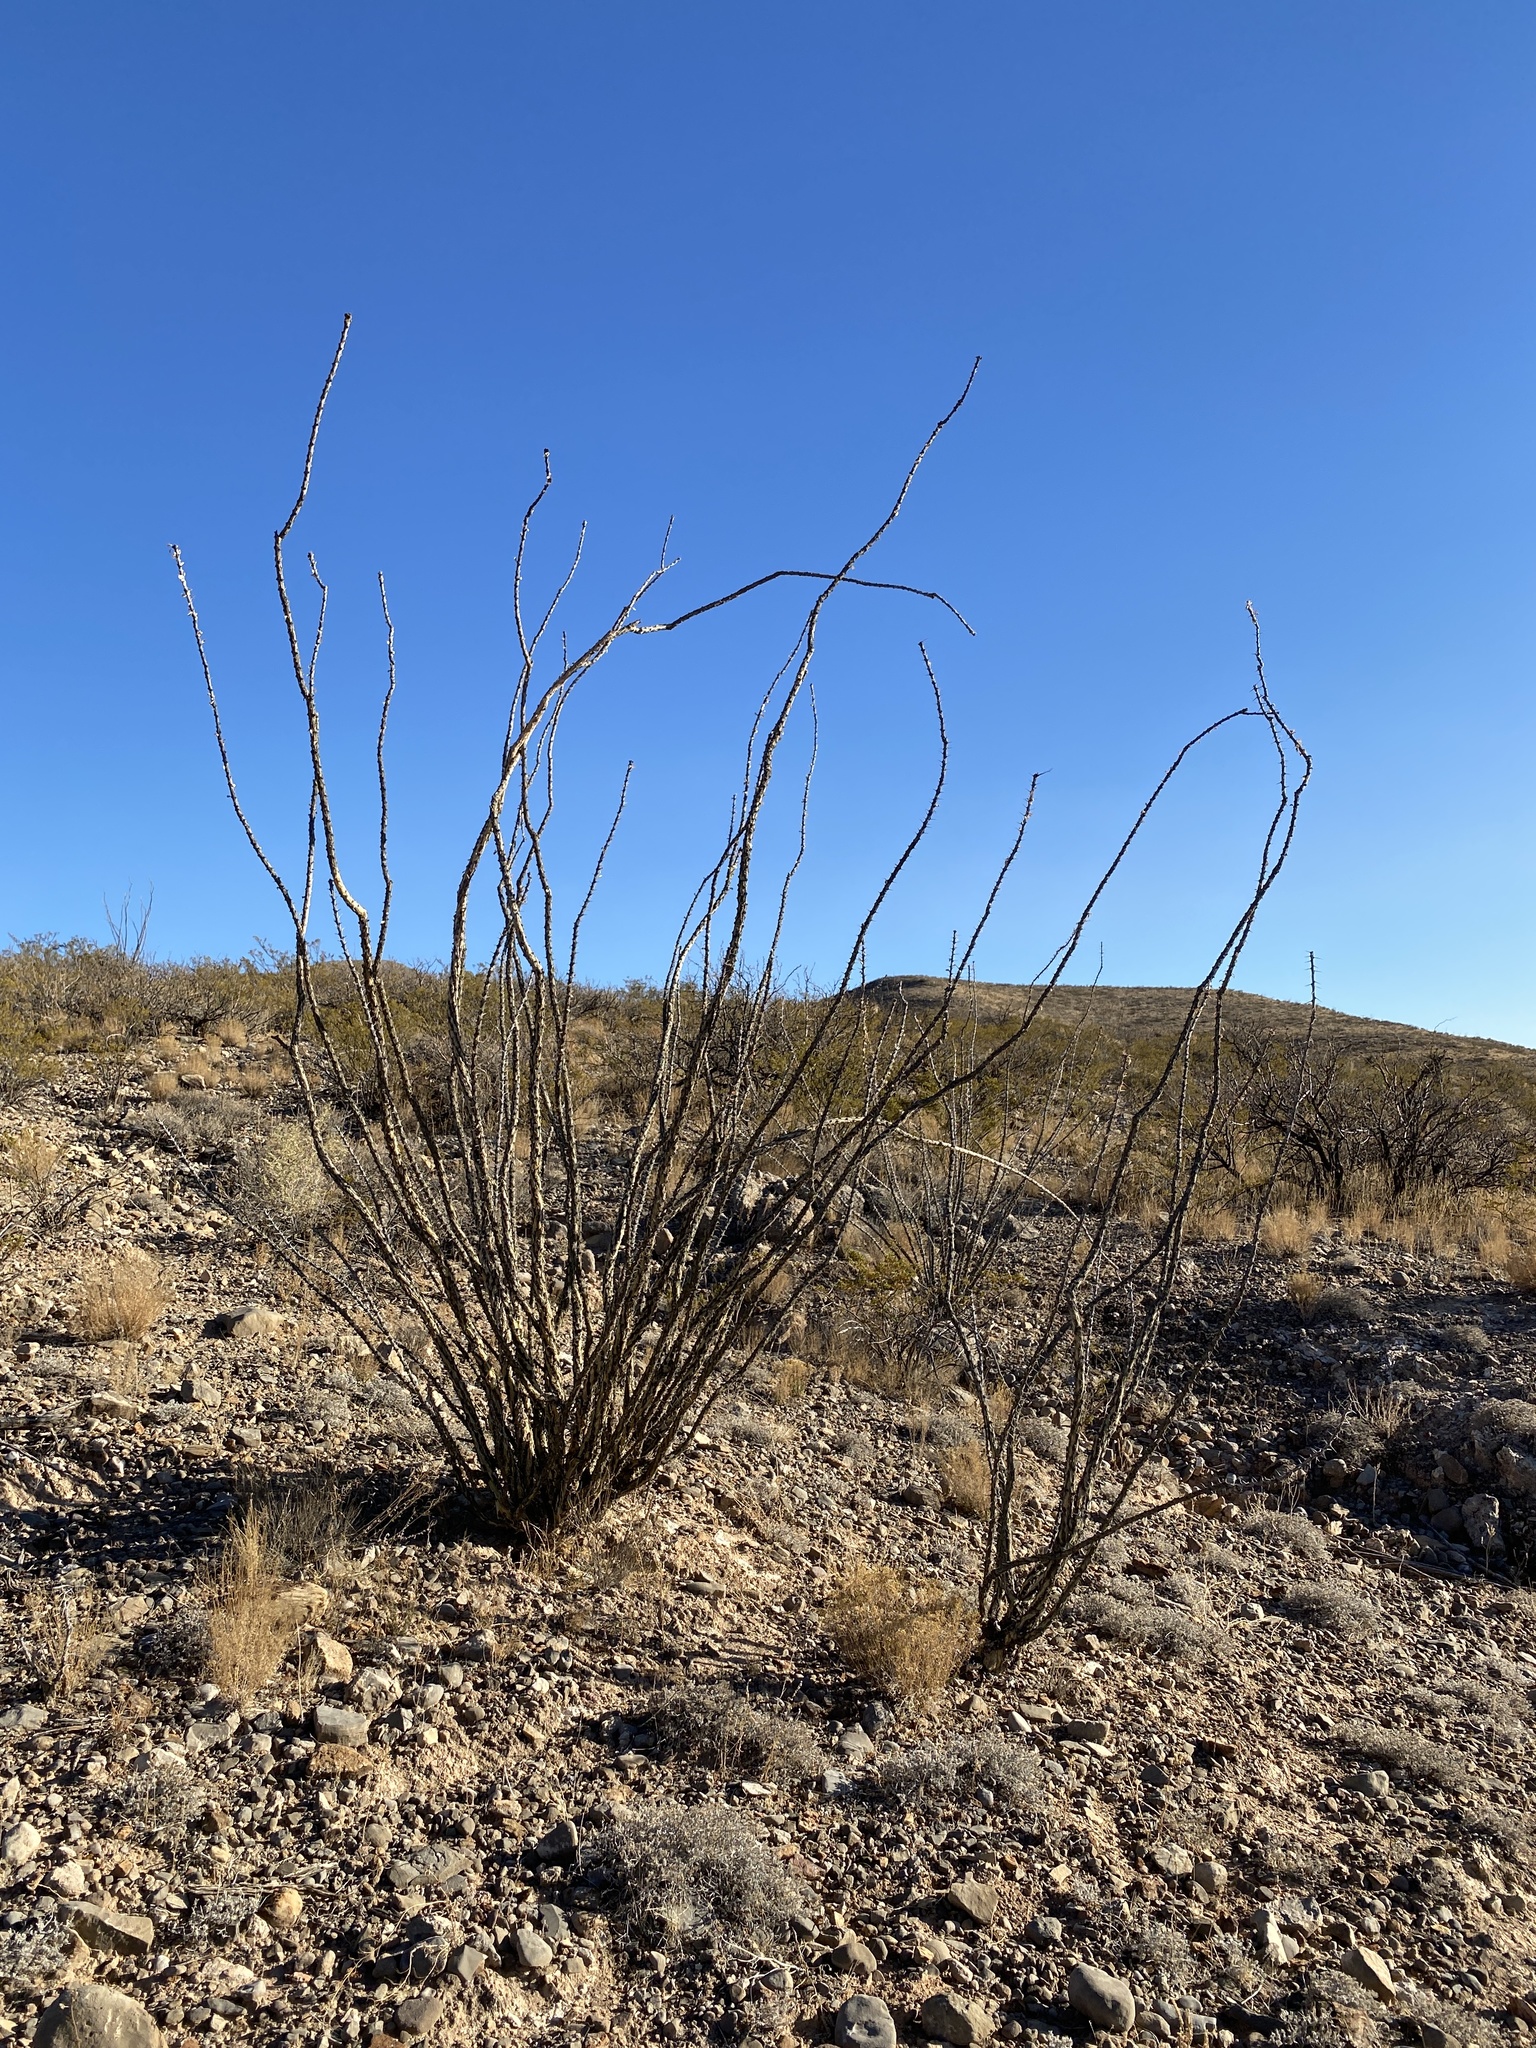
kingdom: Plantae
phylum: Tracheophyta
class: Magnoliopsida
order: Ericales
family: Fouquieriaceae
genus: Fouquieria
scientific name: Fouquieria splendens
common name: Vine-cactus
